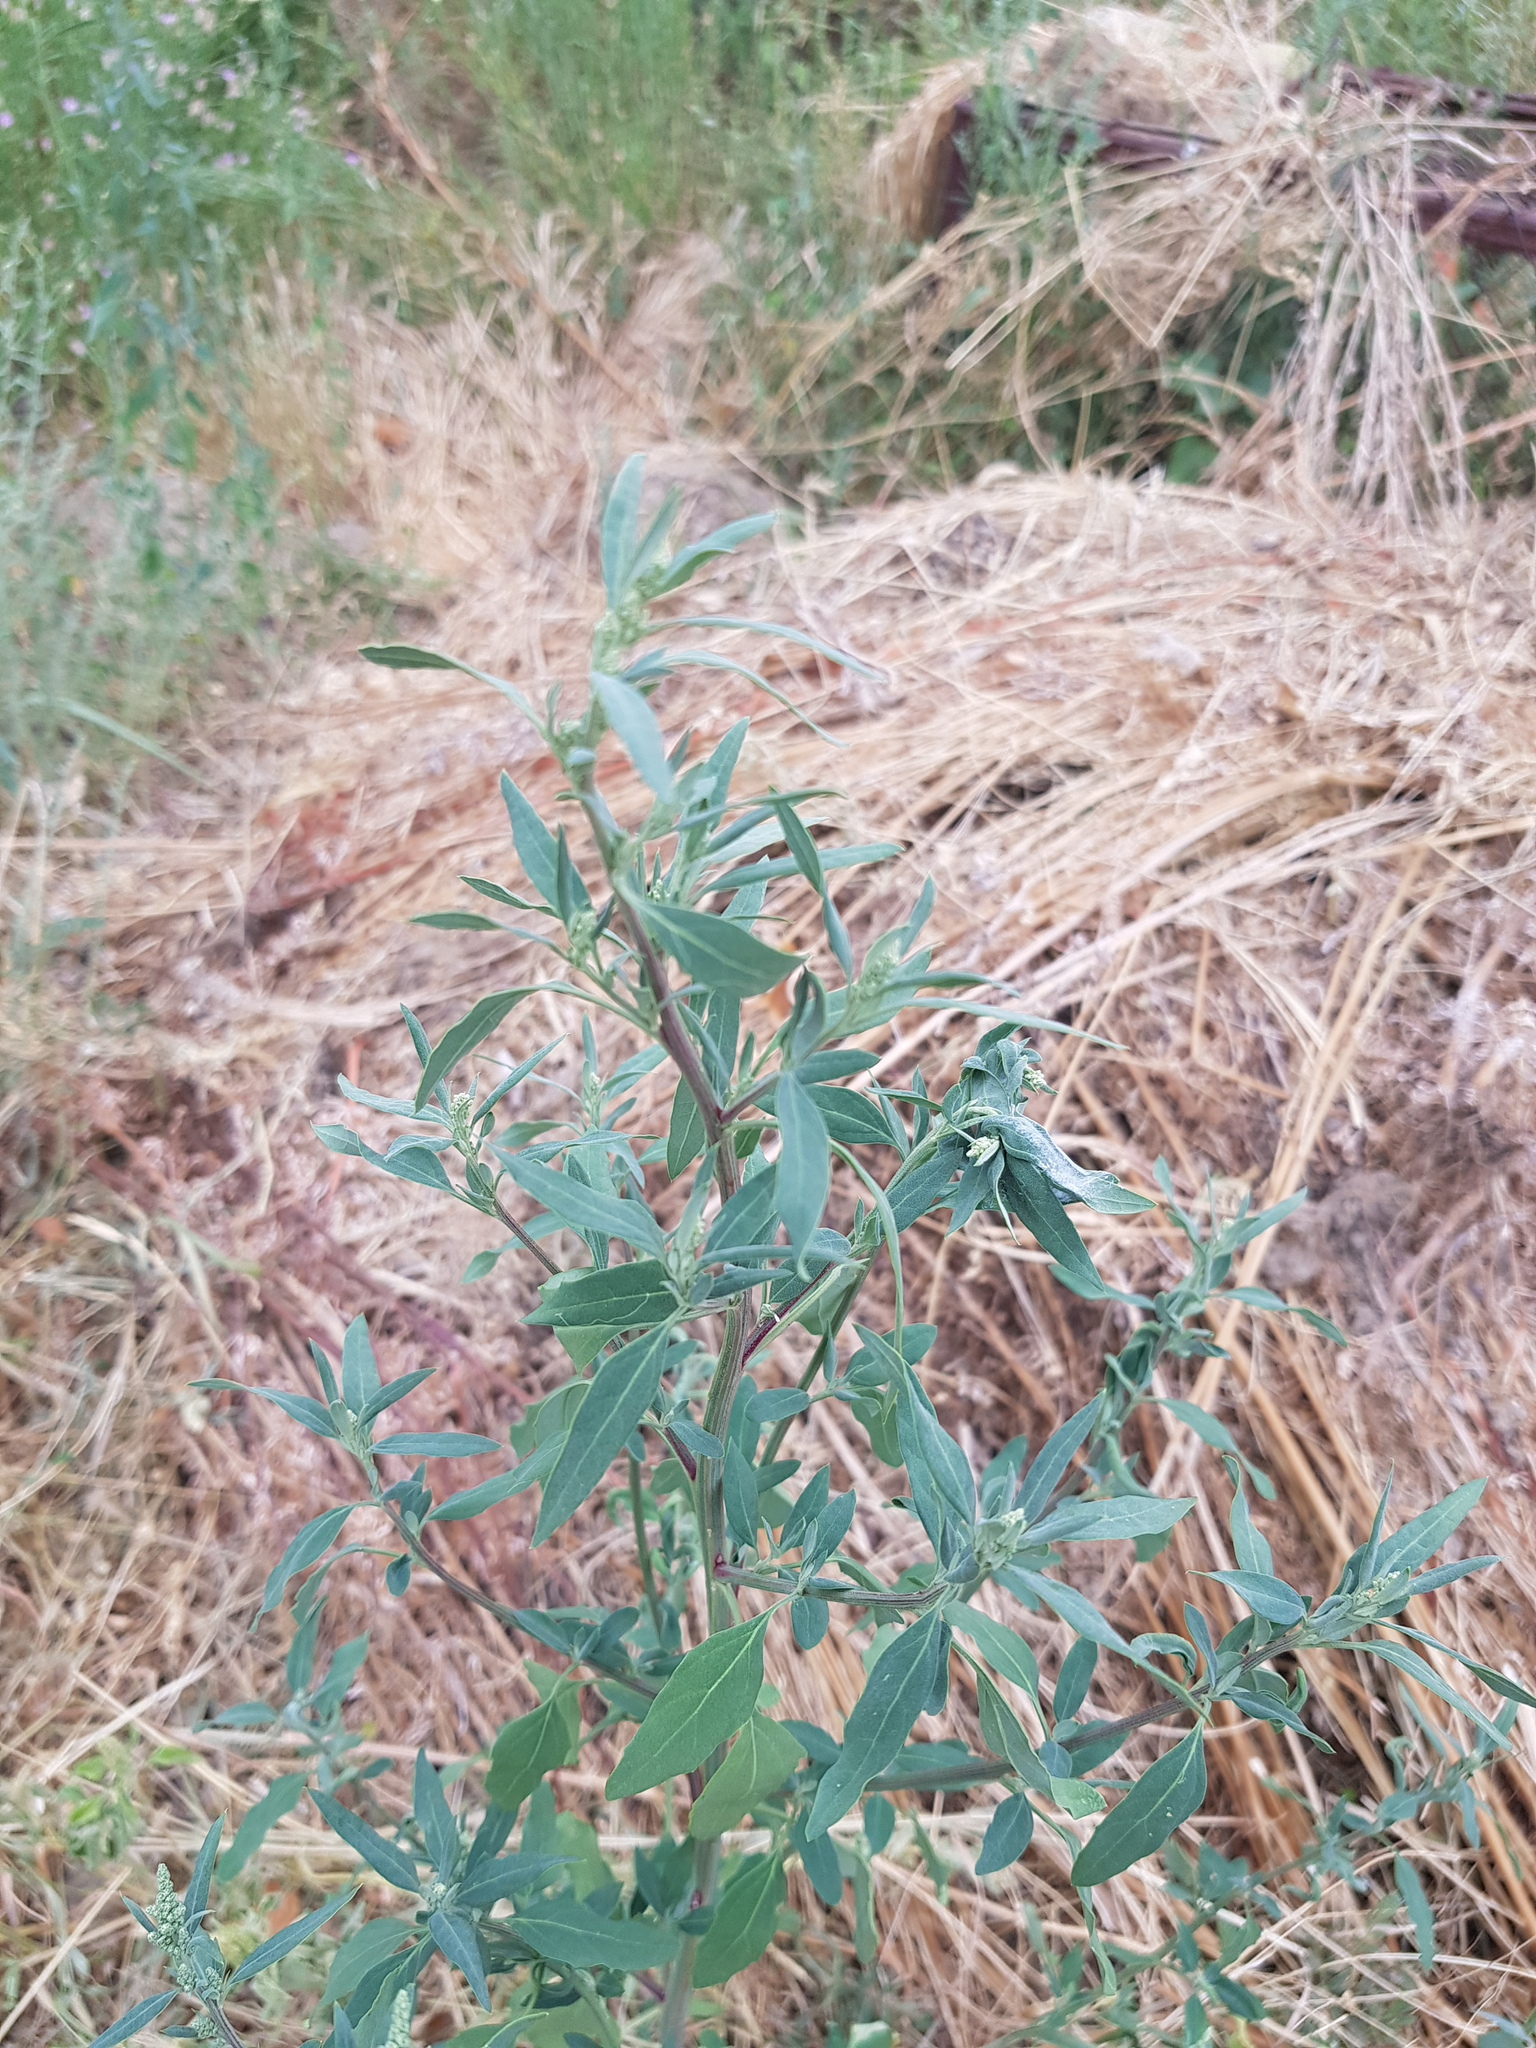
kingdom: Plantae
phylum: Tracheophyta
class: Magnoliopsida
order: Caryophyllales
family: Amaranthaceae
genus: Chenopodium
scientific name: Chenopodium album
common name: Fat-hen
